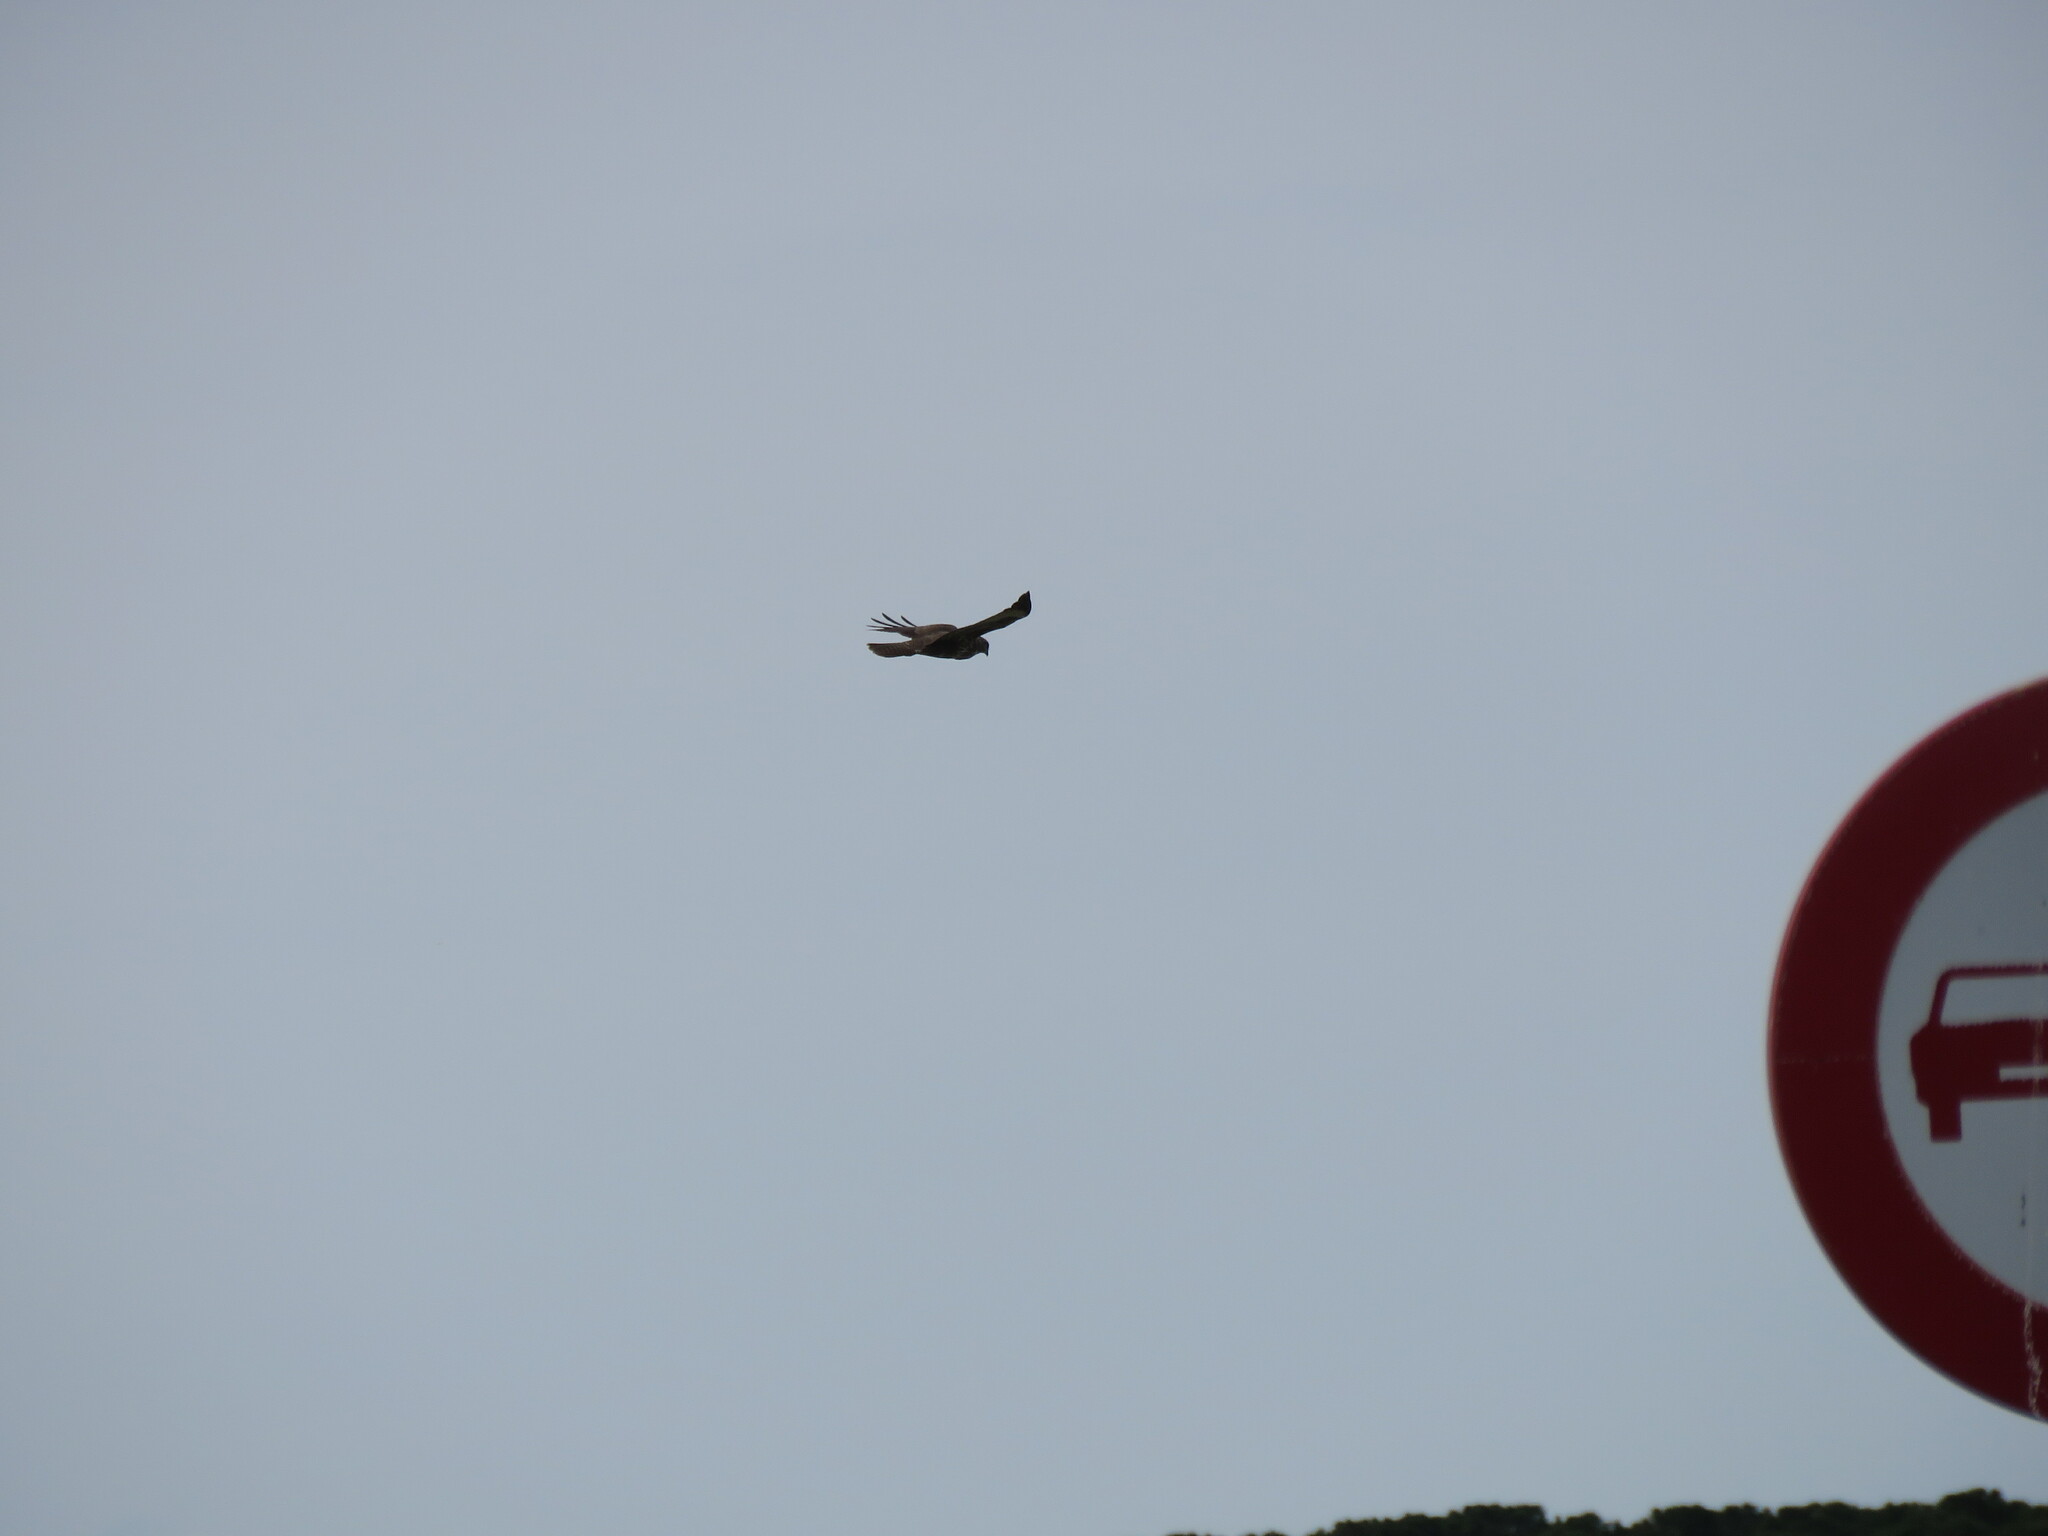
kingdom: Animalia
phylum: Chordata
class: Aves
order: Accipitriformes
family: Accipitridae
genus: Buteo
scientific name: Buteo buteo
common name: Common buzzard
